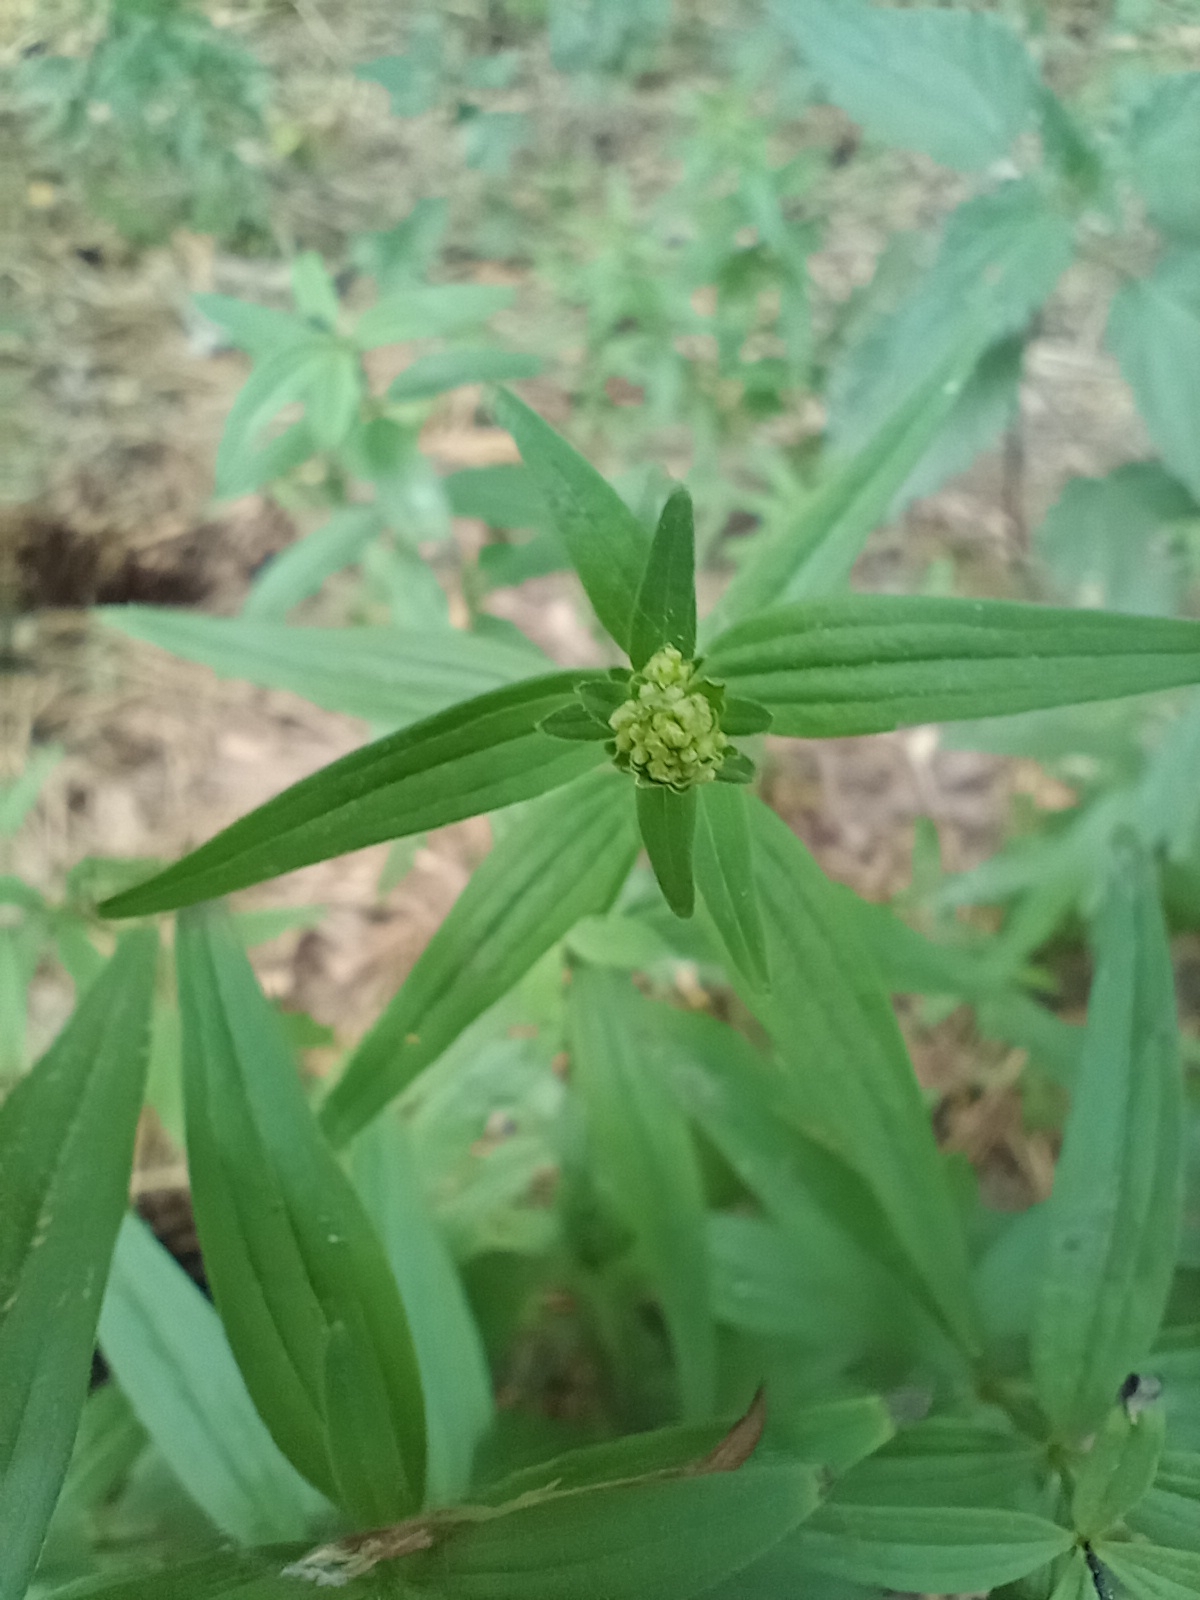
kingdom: Plantae
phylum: Tracheophyta
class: Magnoliopsida
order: Gentianales
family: Rubiaceae
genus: Galium
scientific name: Galium boreale
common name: Northern bedstraw
